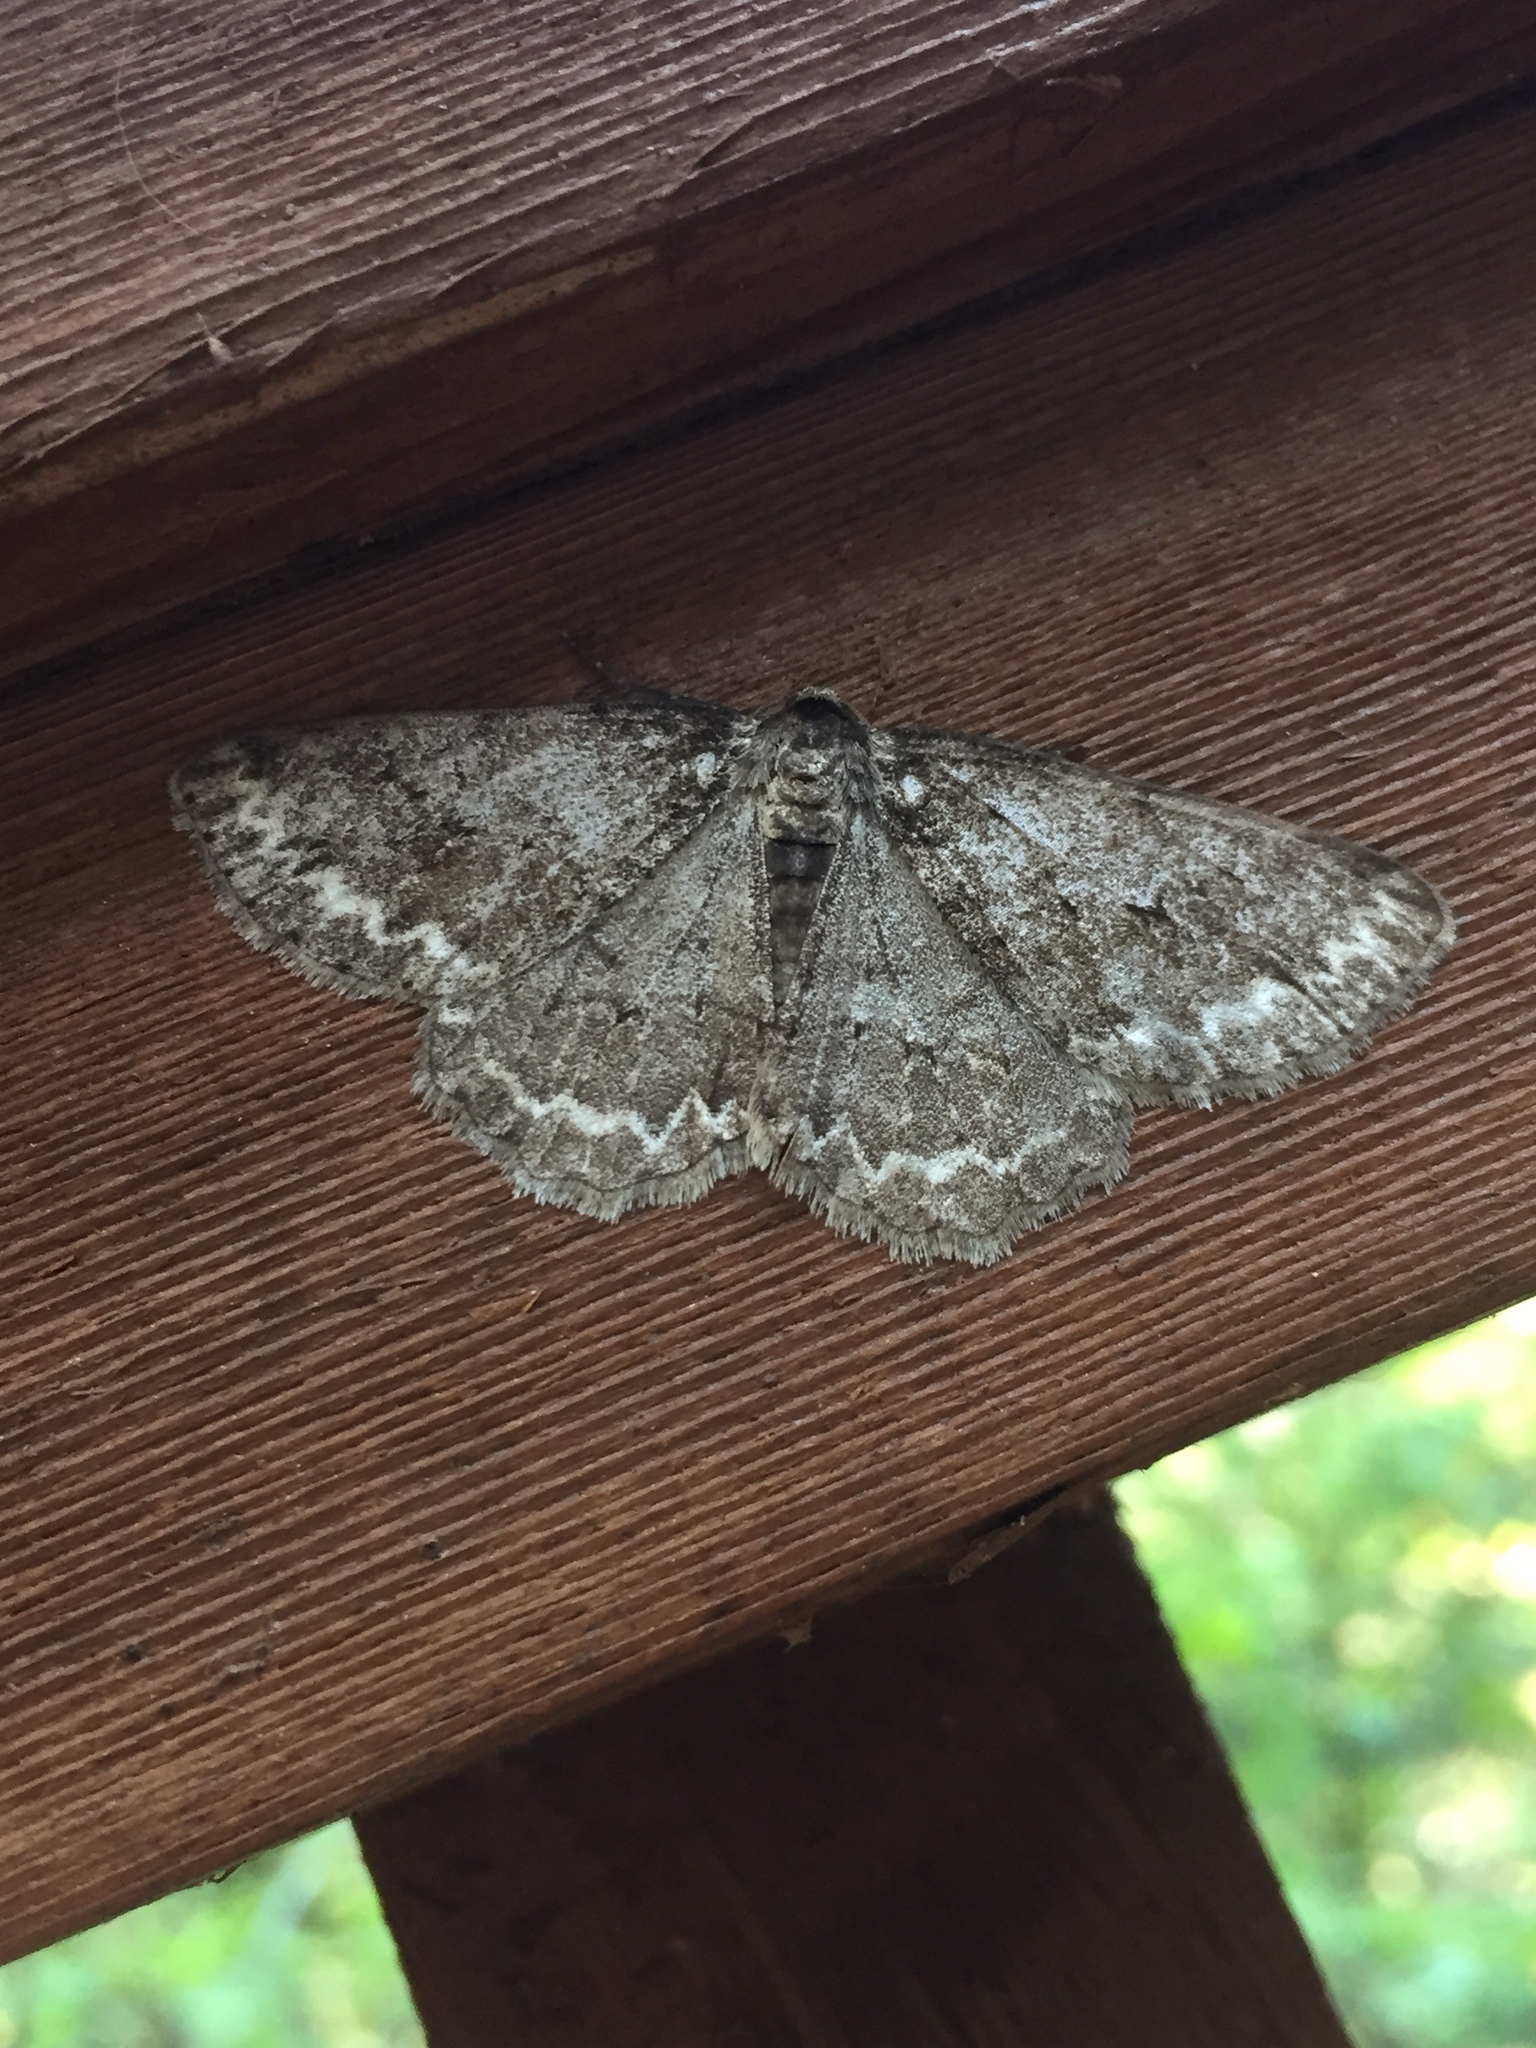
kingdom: Animalia
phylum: Arthropoda
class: Insecta
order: Lepidoptera
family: Geometridae
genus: Ectropis
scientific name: Ectropis crepuscularia
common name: Engrailed
